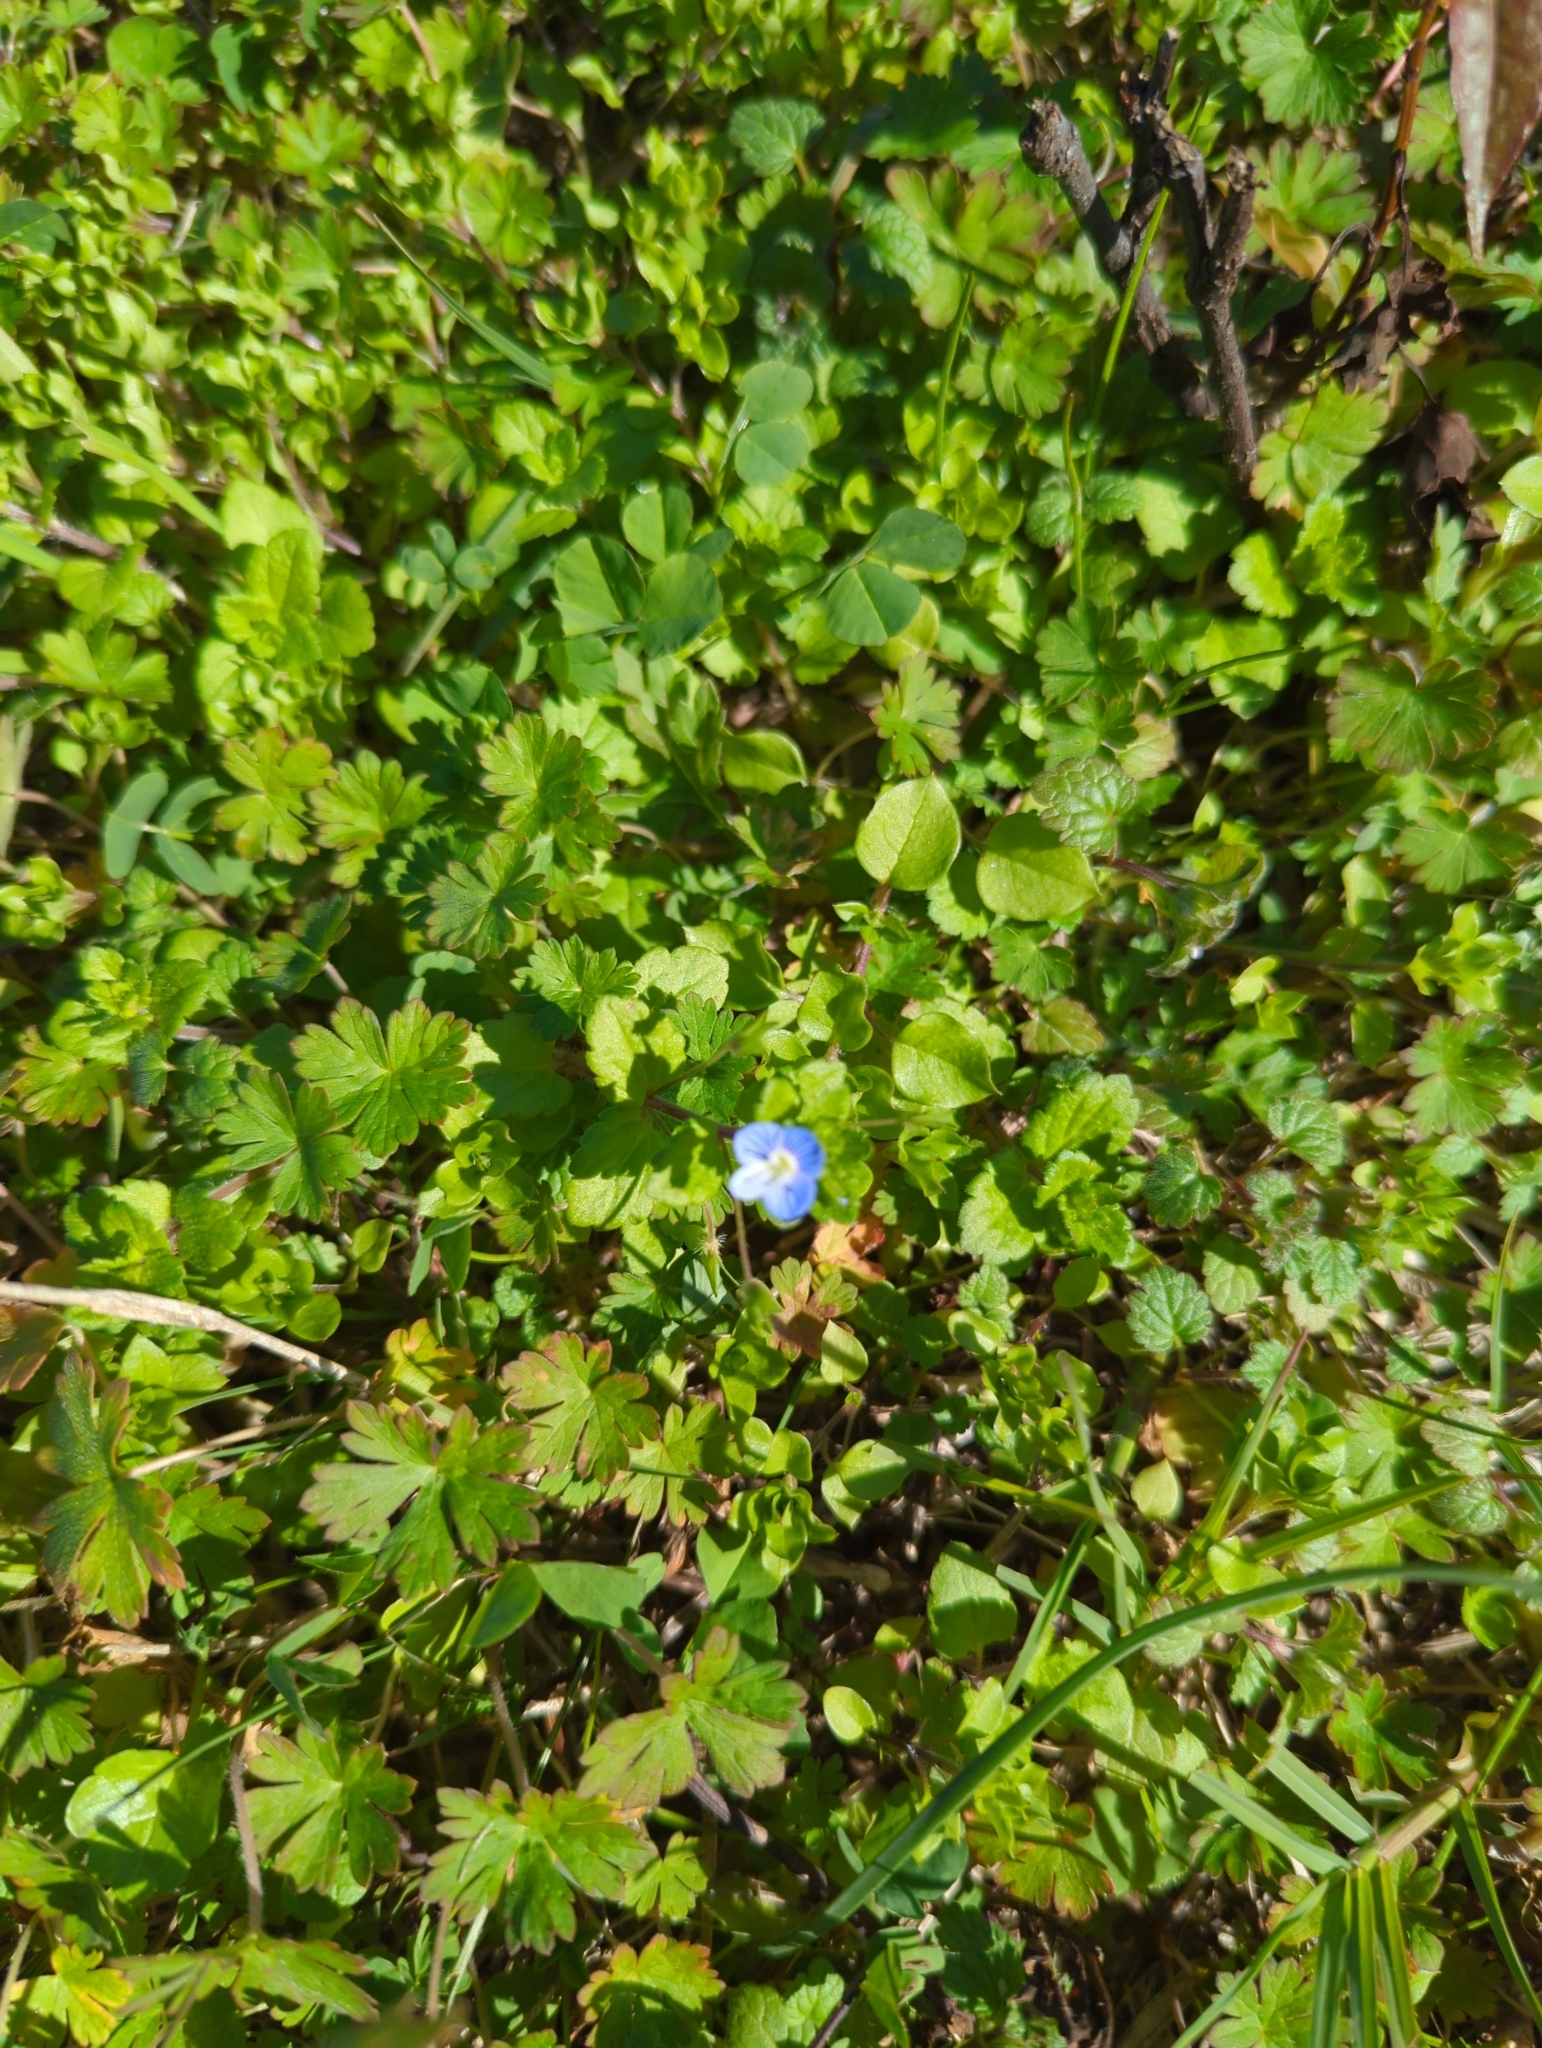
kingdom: Plantae
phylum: Tracheophyta
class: Magnoliopsida
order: Lamiales
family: Plantaginaceae
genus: Veronica
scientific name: Veronica persica
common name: Common field-speedwell
